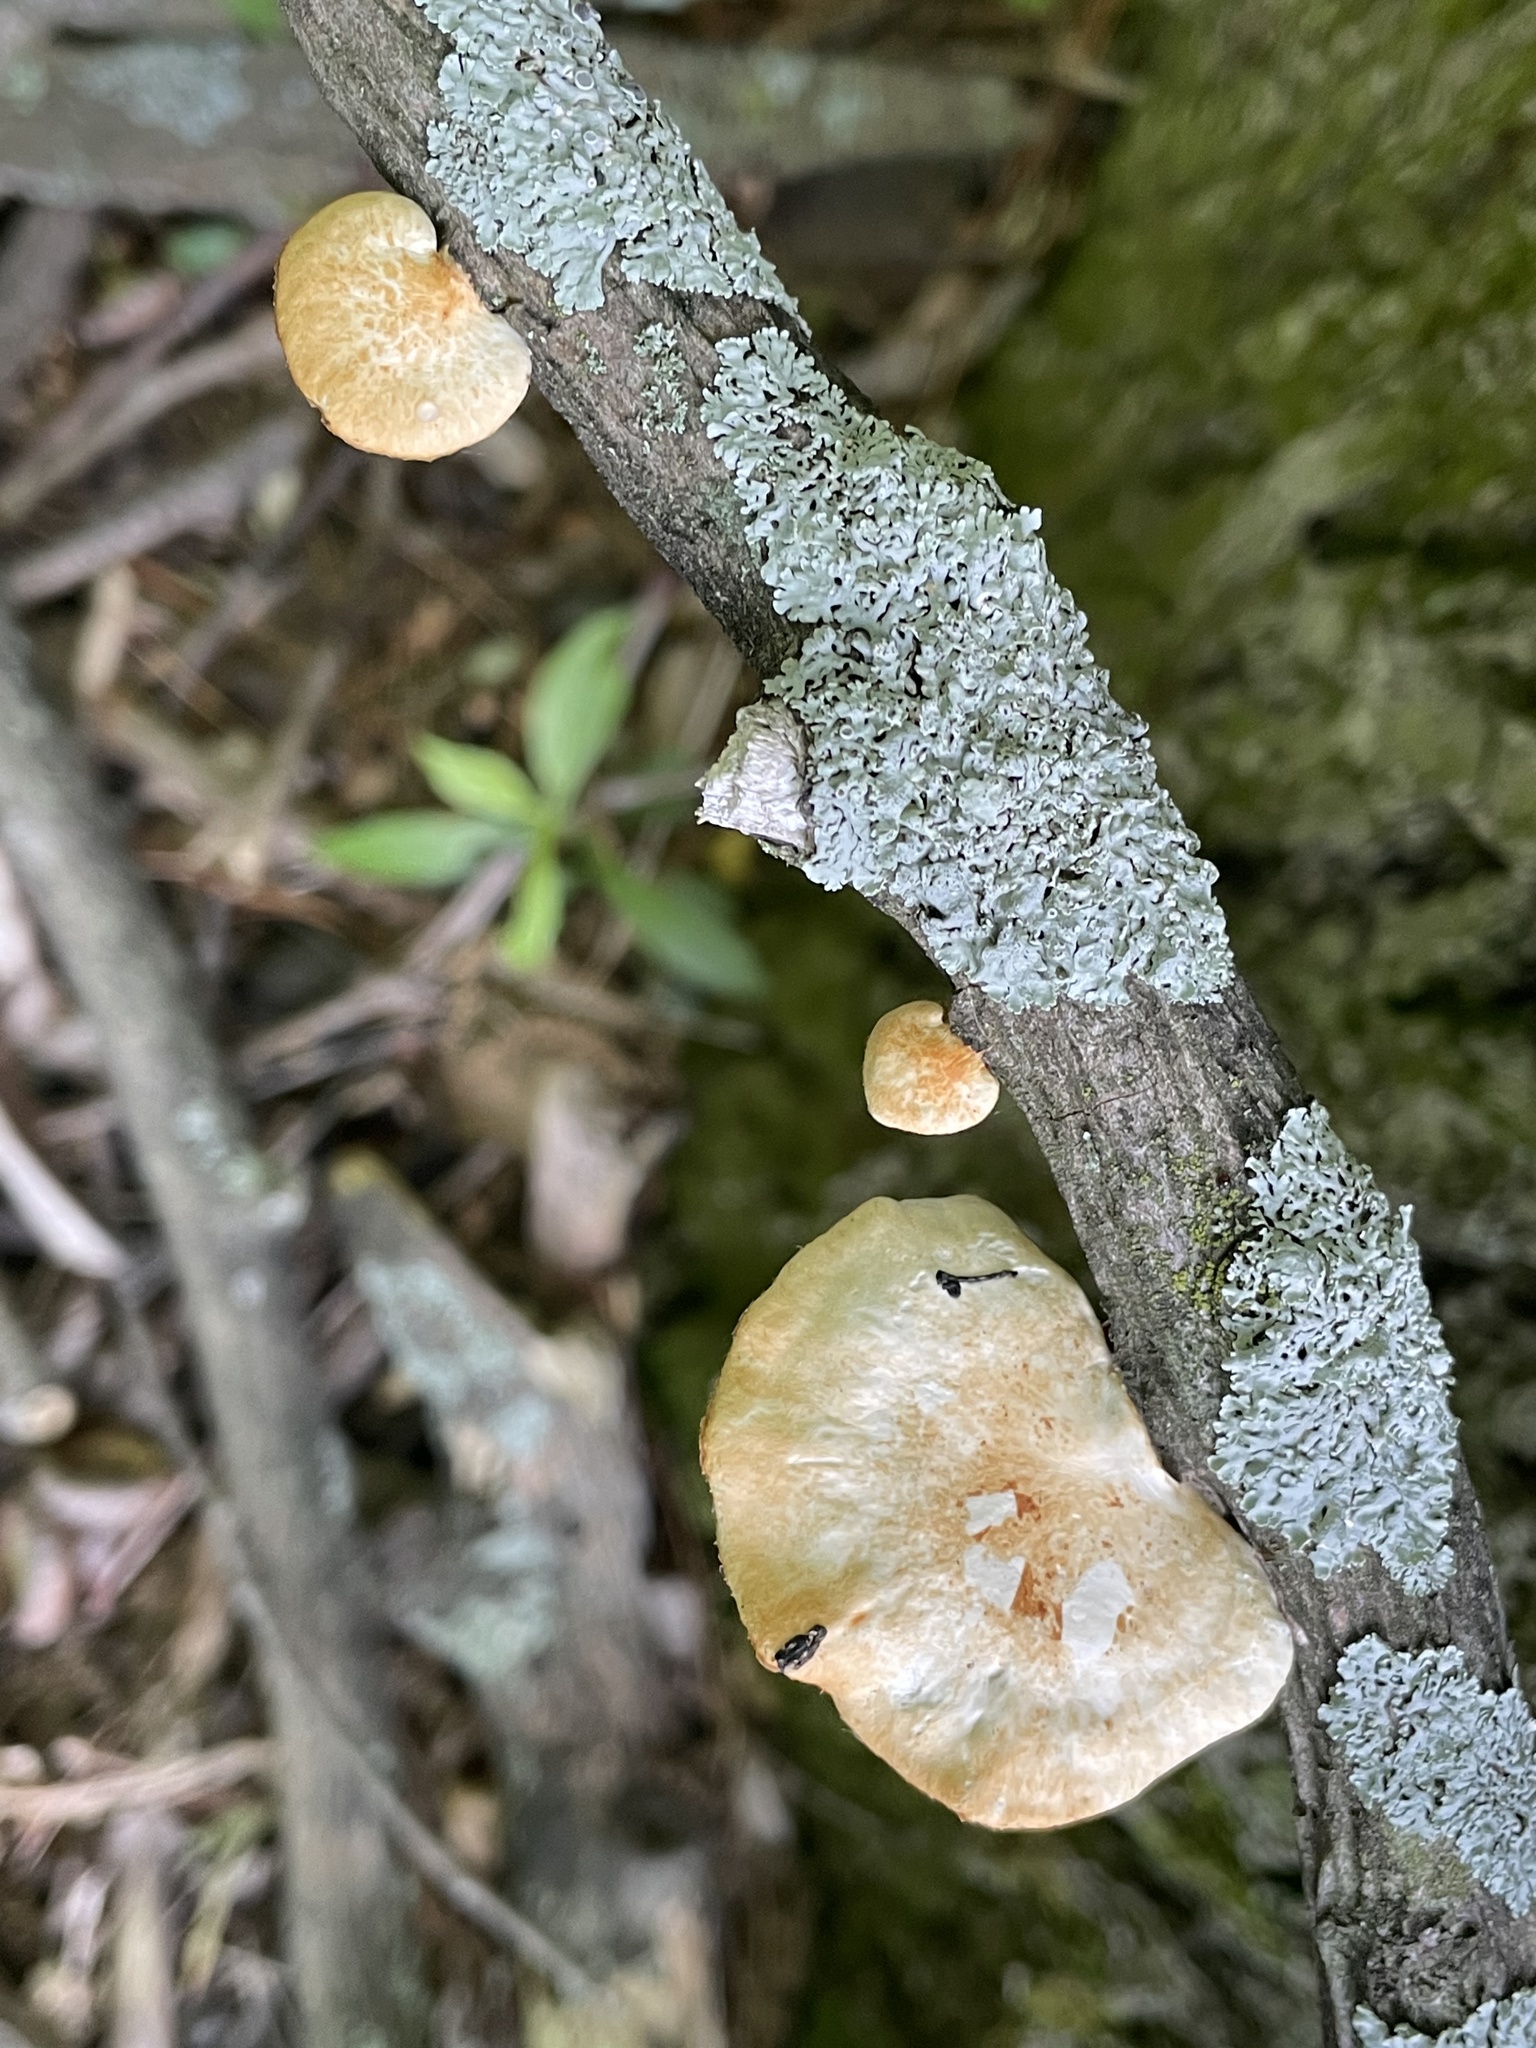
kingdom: Fungi
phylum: Basidiomycota
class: Agaricomycetes
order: Polyporales
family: Polyporaceae
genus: Neofavolus
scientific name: Neofavolus americanus
